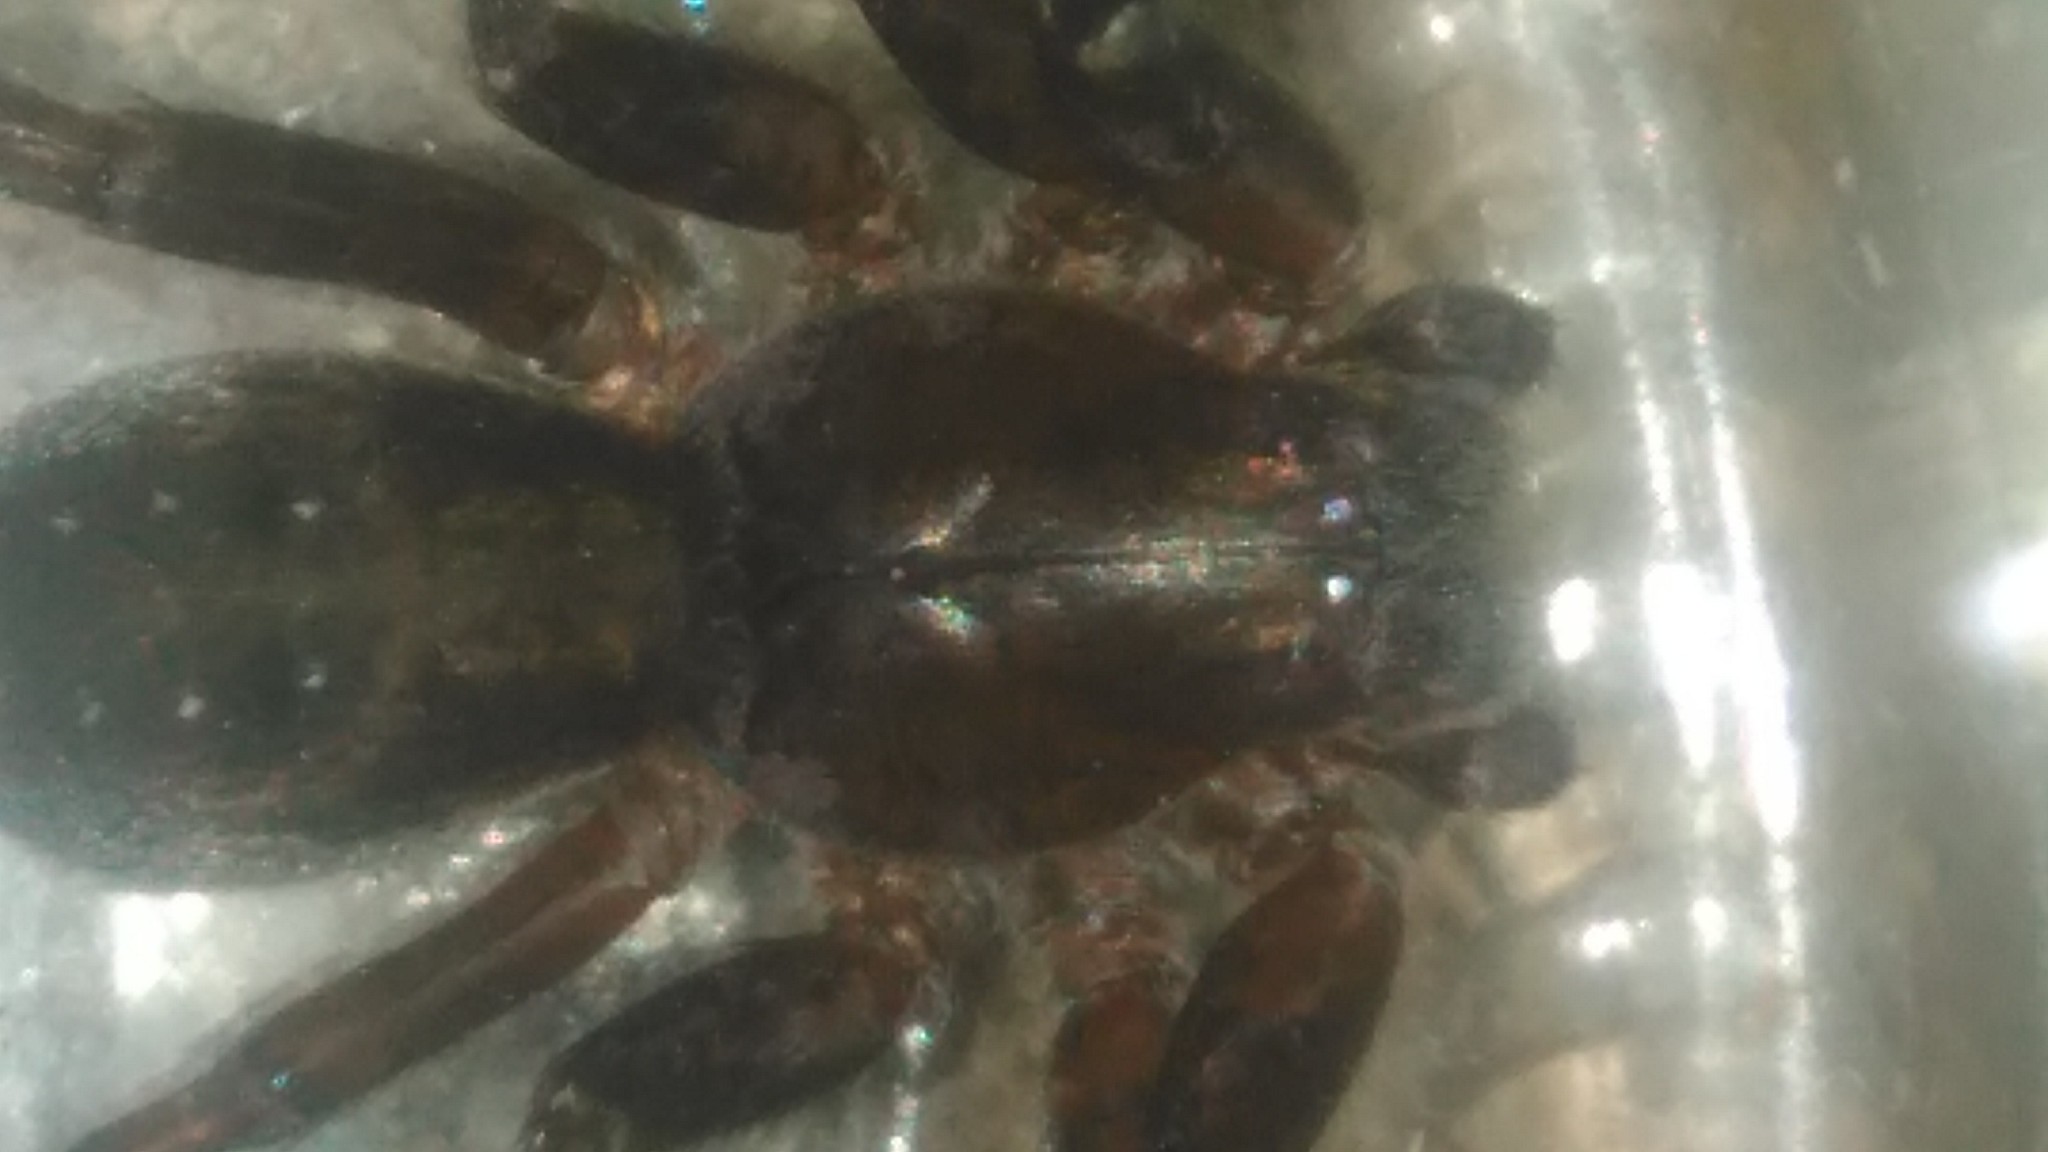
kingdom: Animalia
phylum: Arthropoda
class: Arachnida
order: Araneae
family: Ctenidae
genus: Asthenoctenus
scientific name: Asthenoctenus borellii
